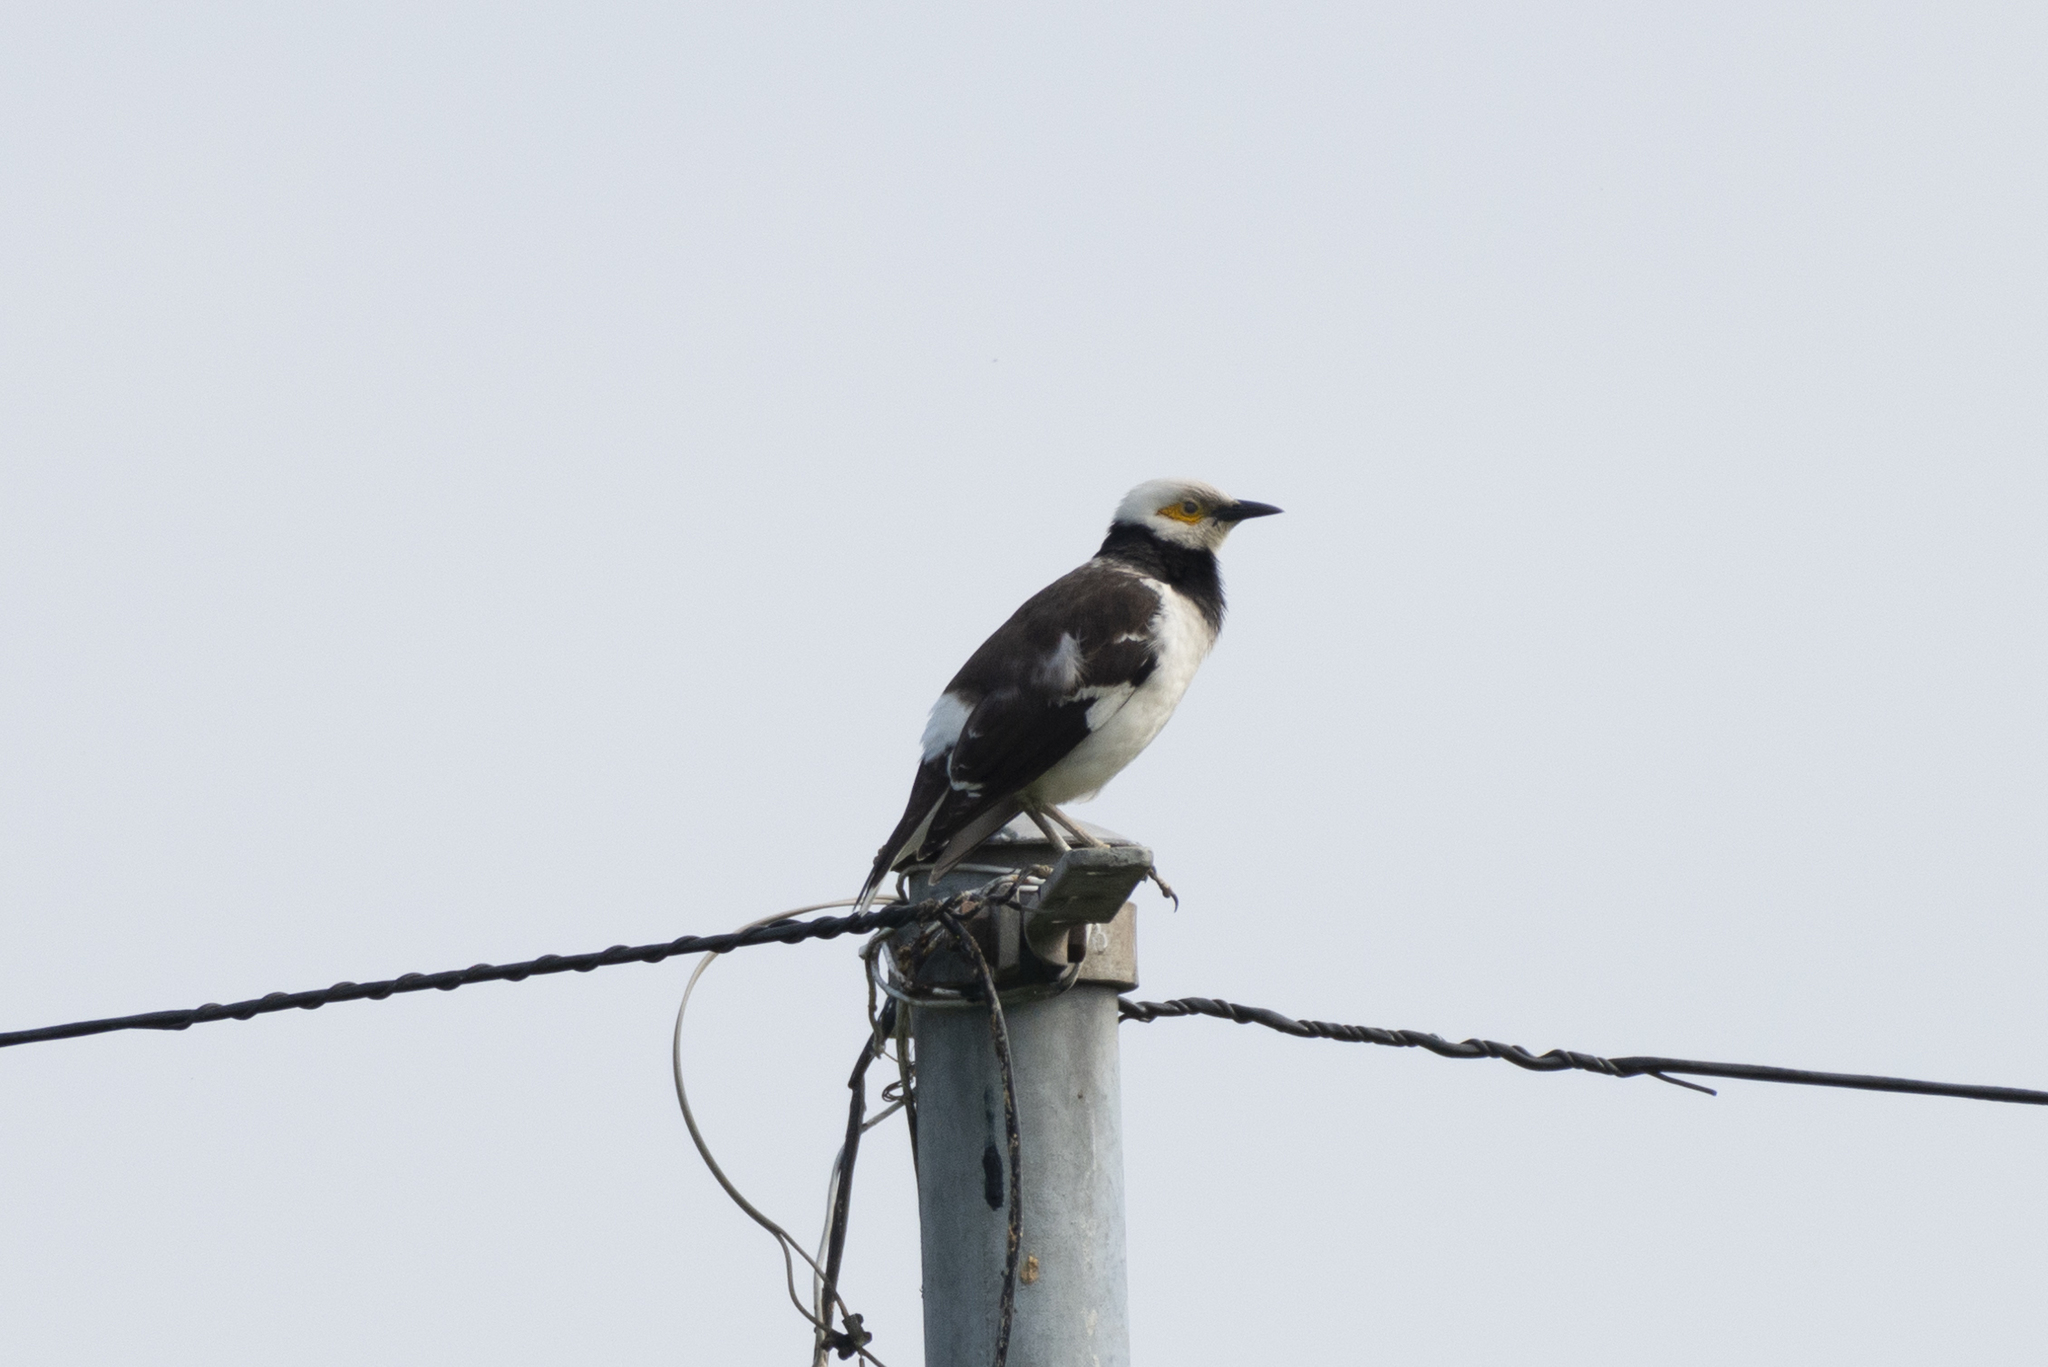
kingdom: Animalia
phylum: Chordata
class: Aves
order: Passeriformes
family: Sturnidae
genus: Gracupica
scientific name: Gracupica nigricollis
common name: Black-collared starling
